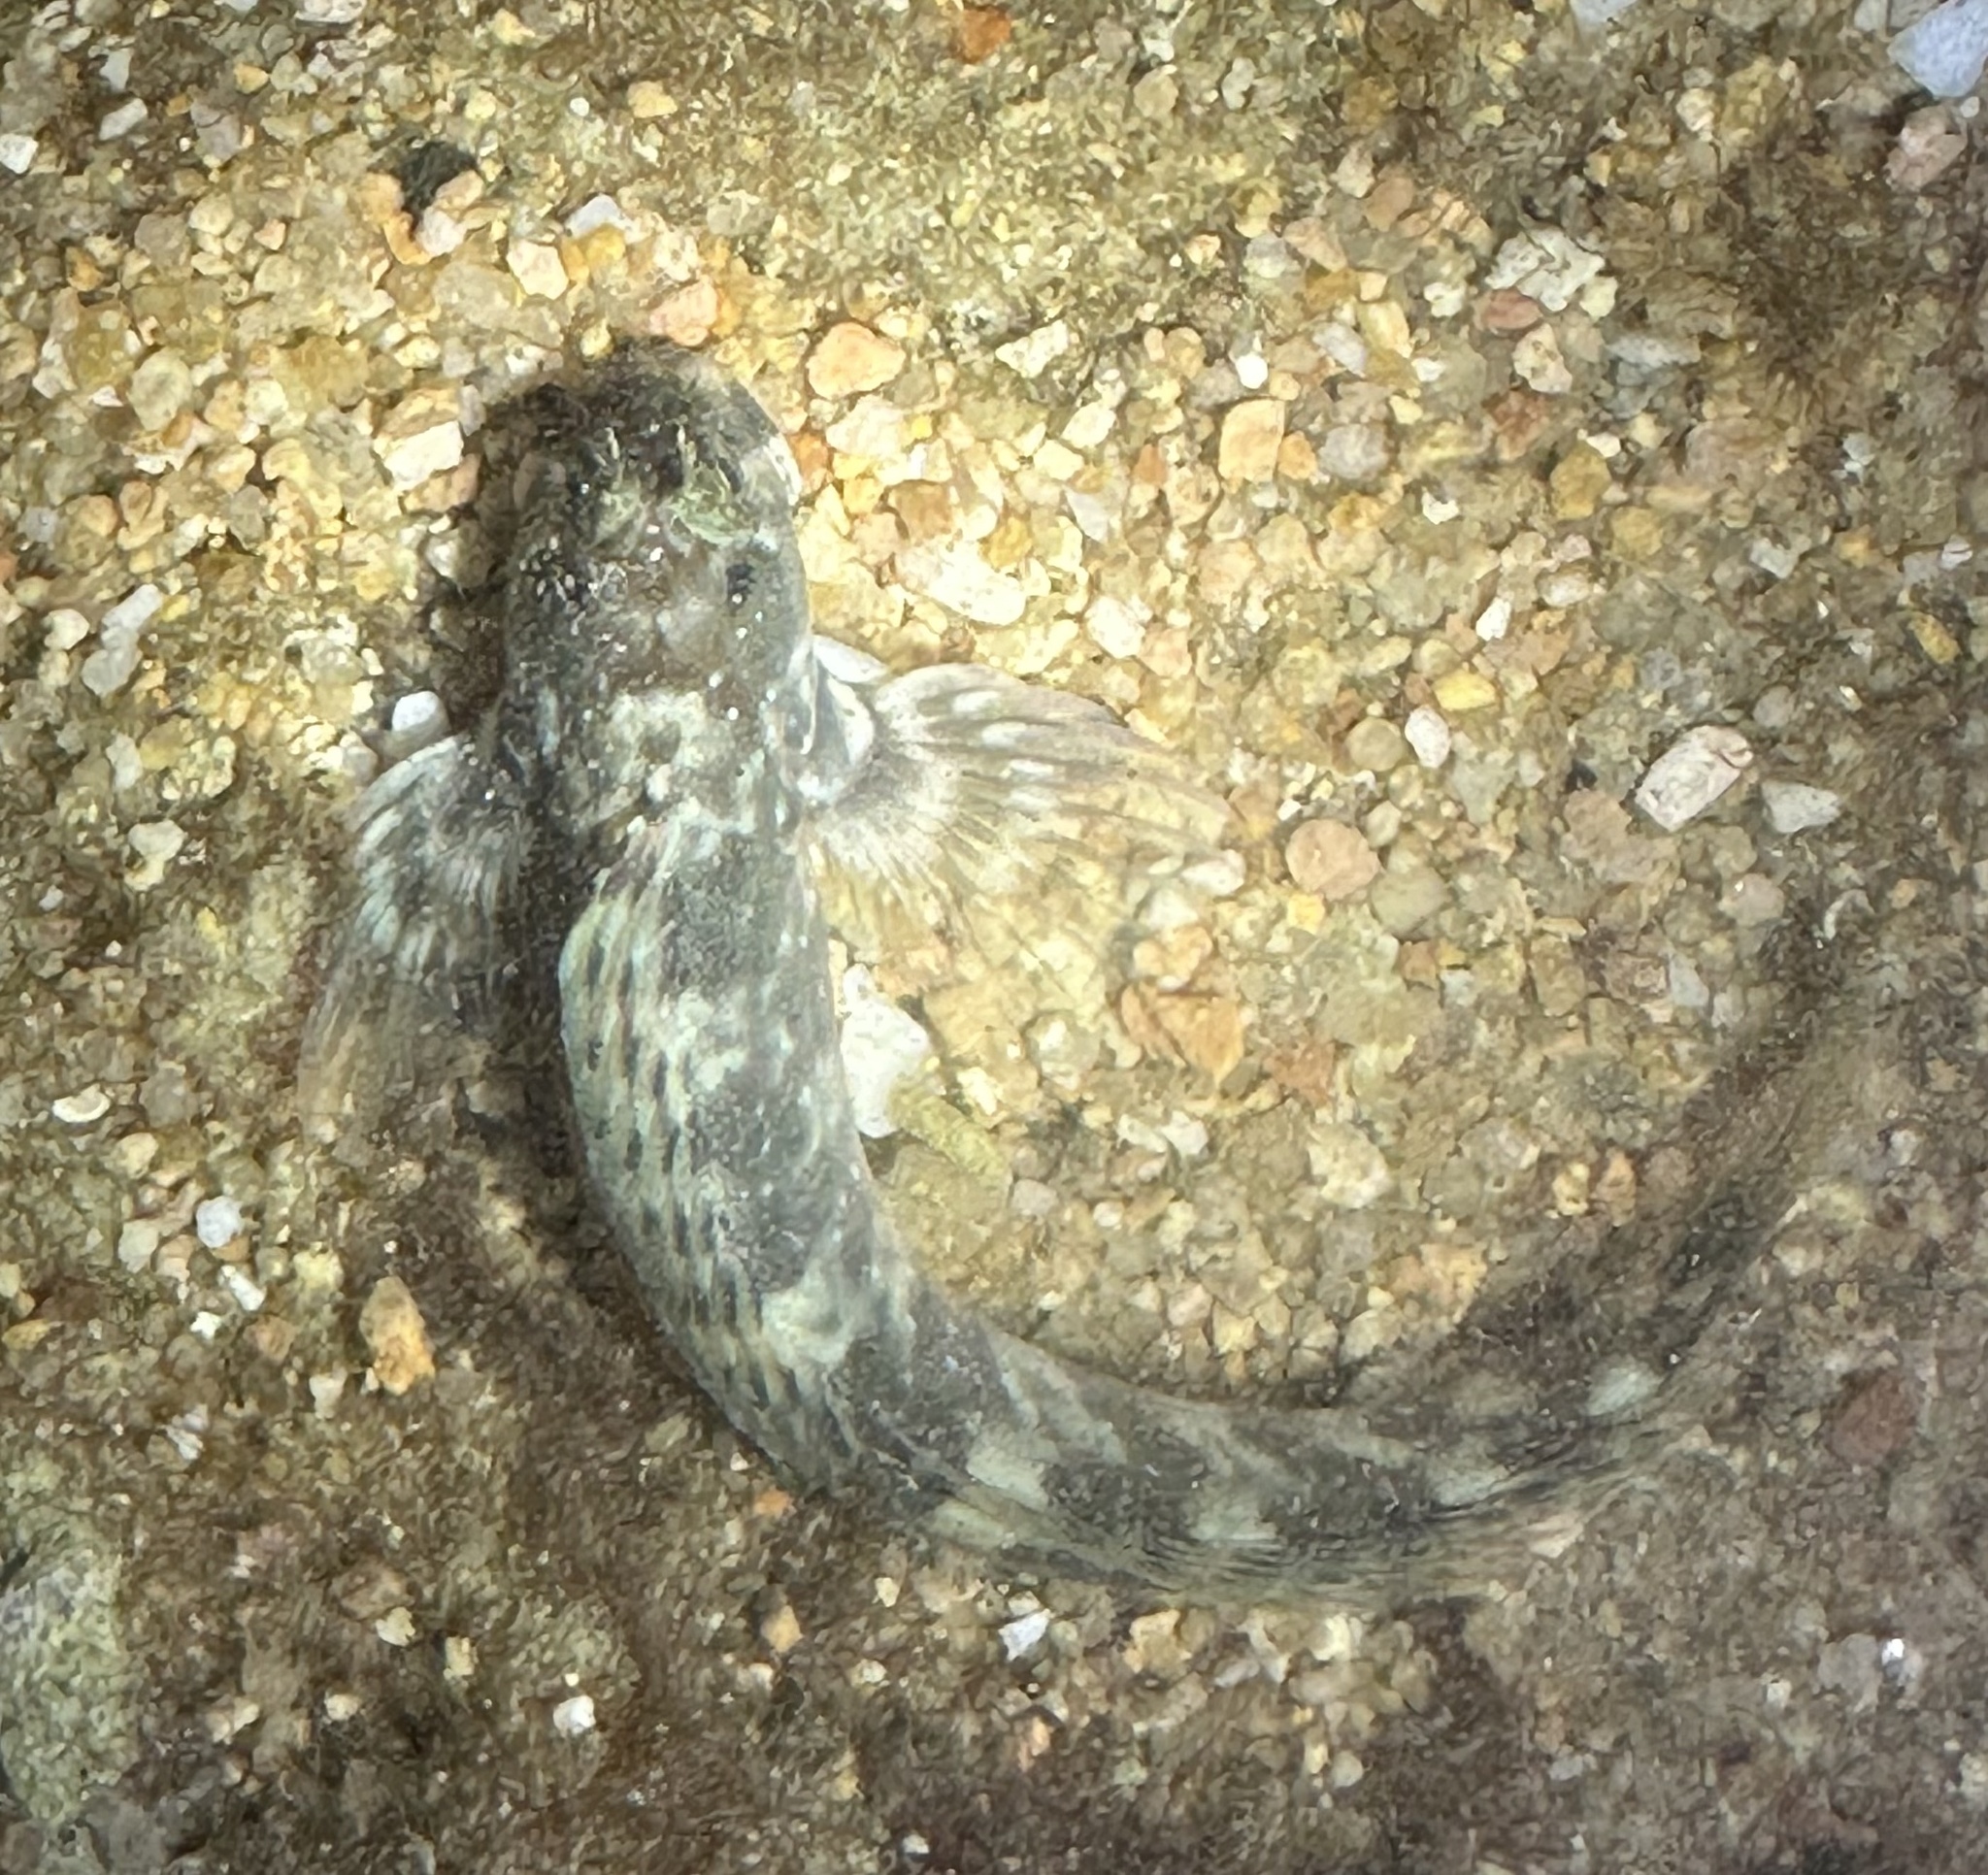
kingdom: Animalia
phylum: Chordata
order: Perciformes
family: Blenniidae
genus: Istiblennius
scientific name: Istiblennius meleagris
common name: Peacock rockskipper
